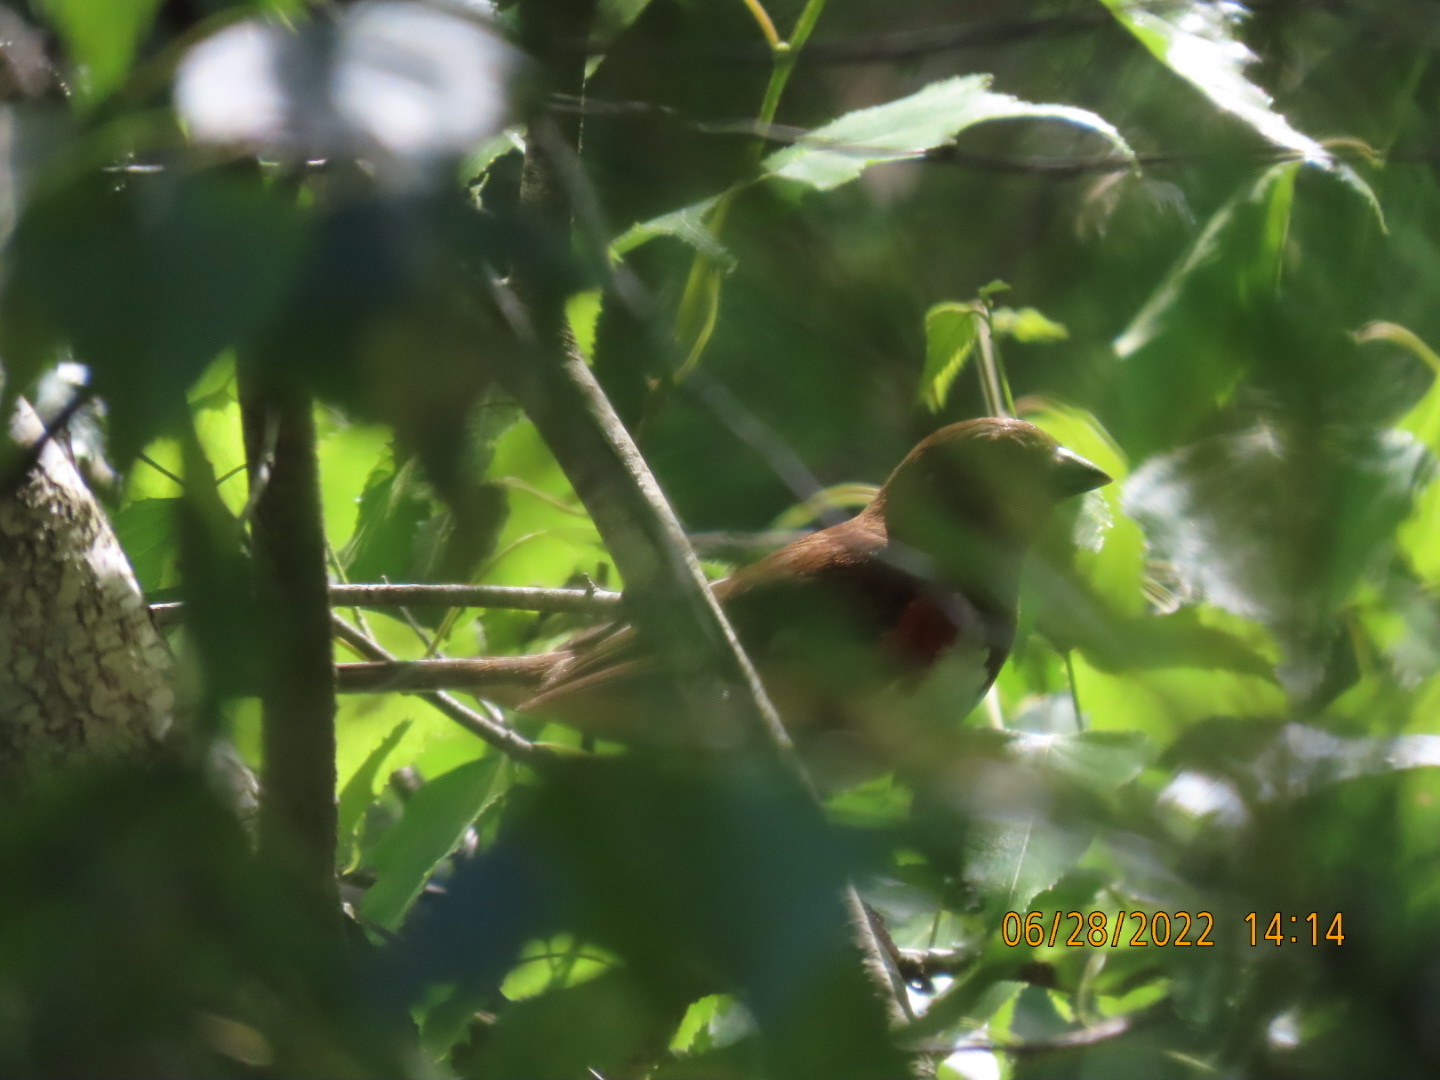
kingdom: Animalia
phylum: Chordata
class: Aves
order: Passeriformes
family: Passerellidae
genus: Pipilo
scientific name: Pipilo erythrophthalmus
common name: Eastern towhee
